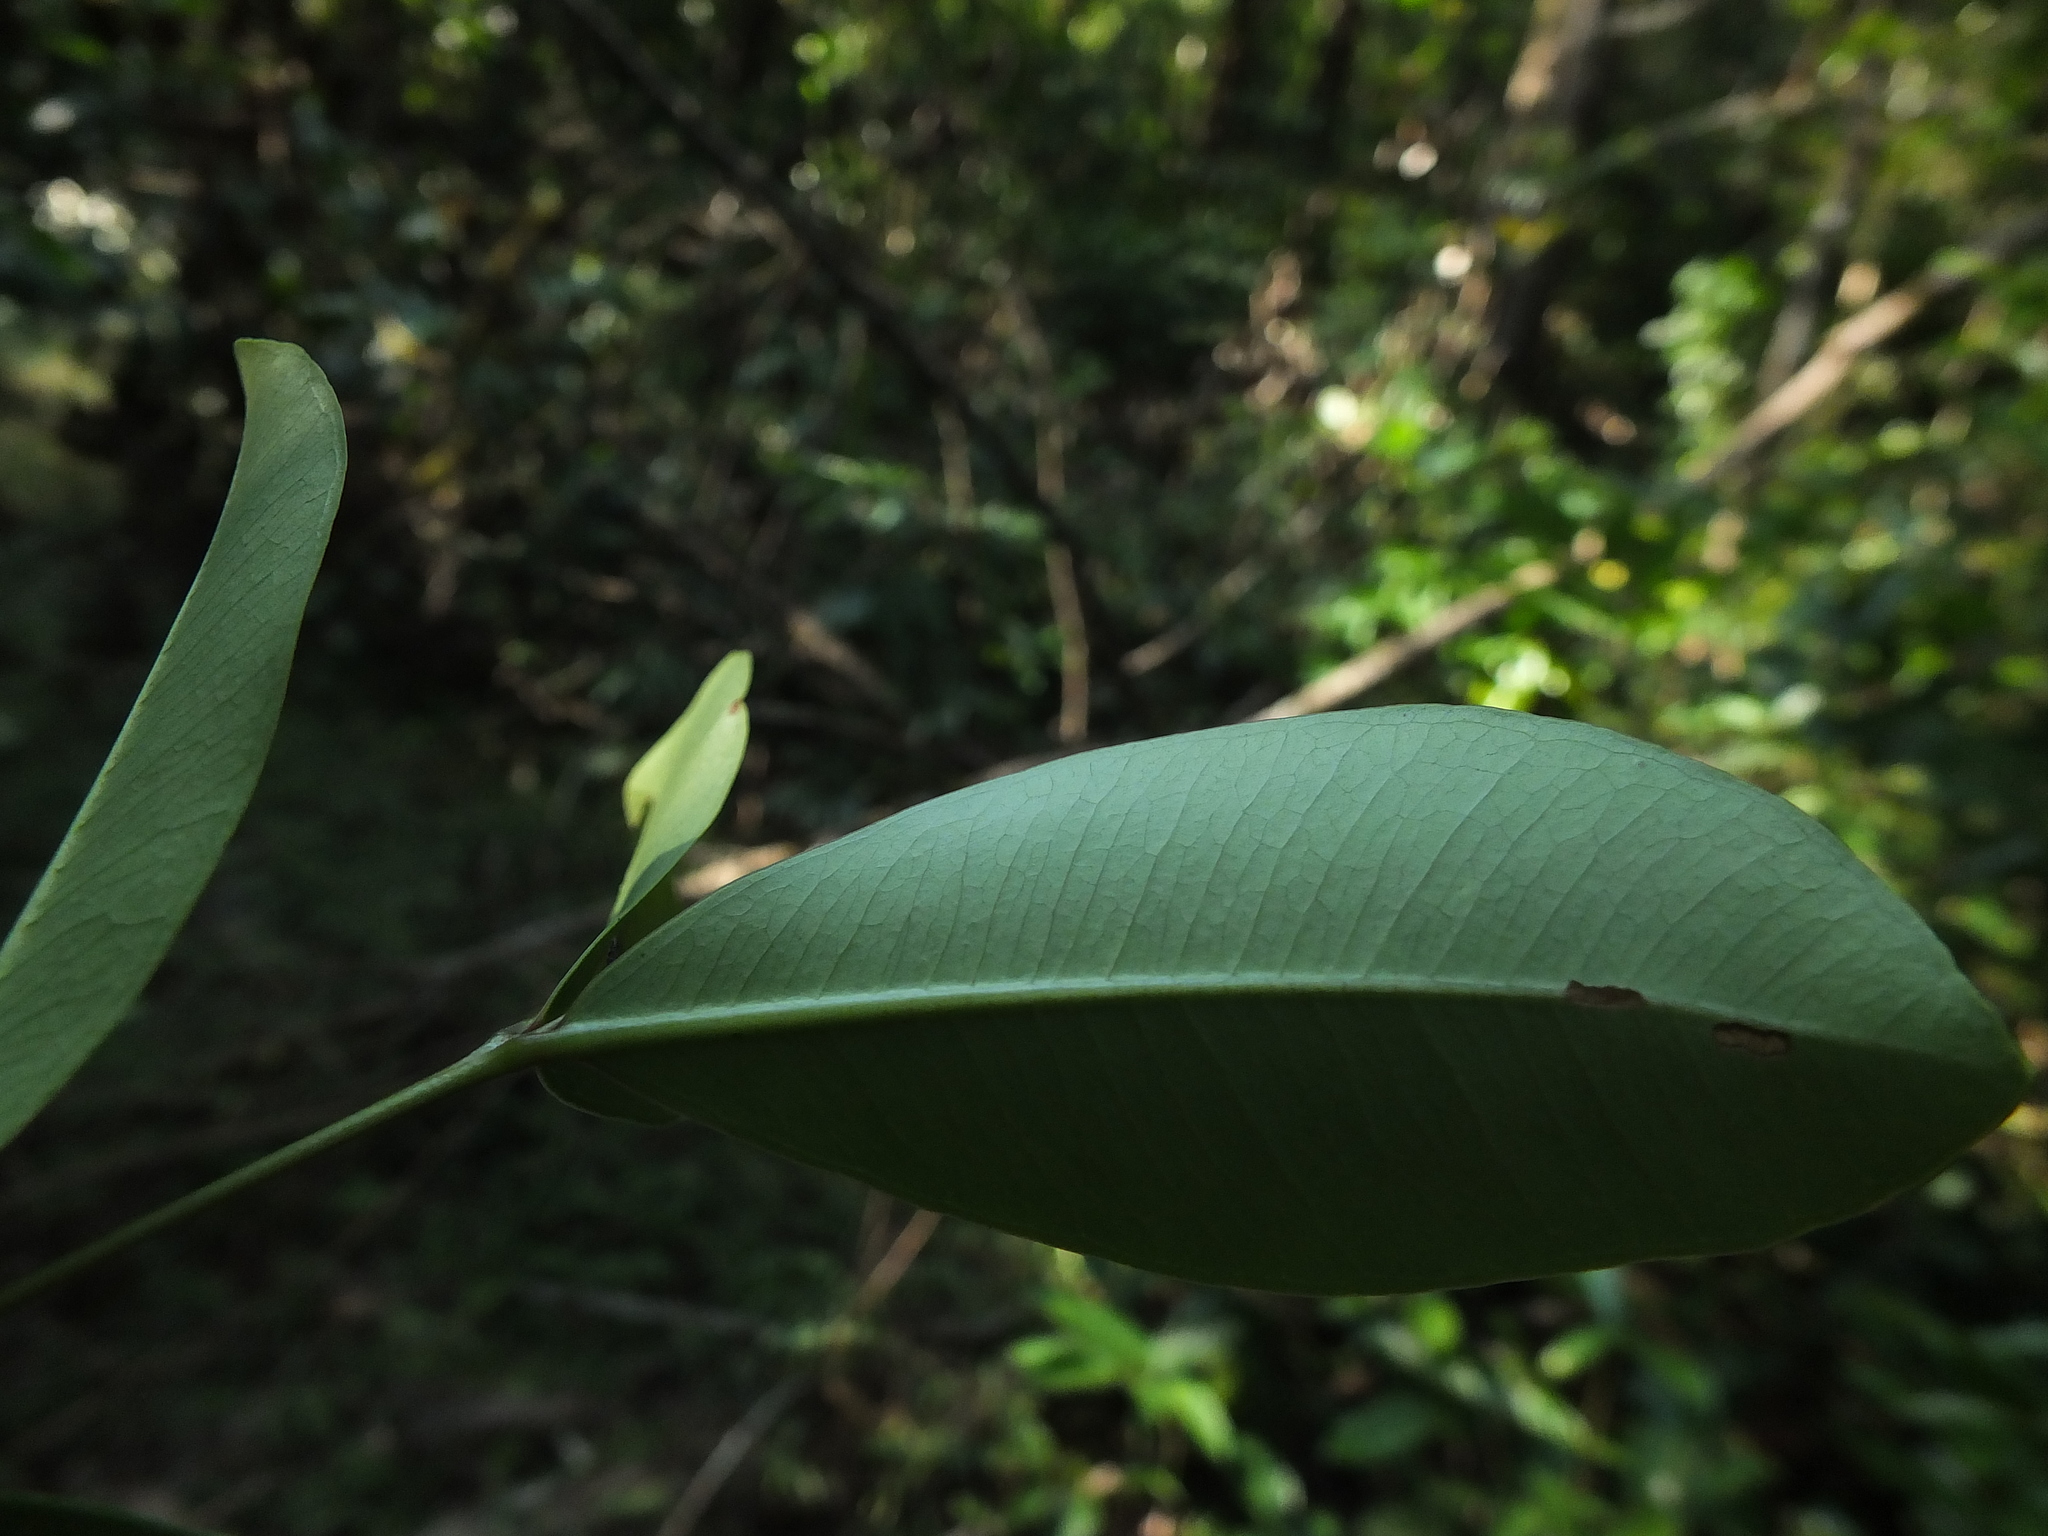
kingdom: Plantae
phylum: Tracheophyta
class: Magnoliopsida
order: Myrtales
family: Myrtaceae
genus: Syzygium
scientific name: Syzygium caryophyllatum
